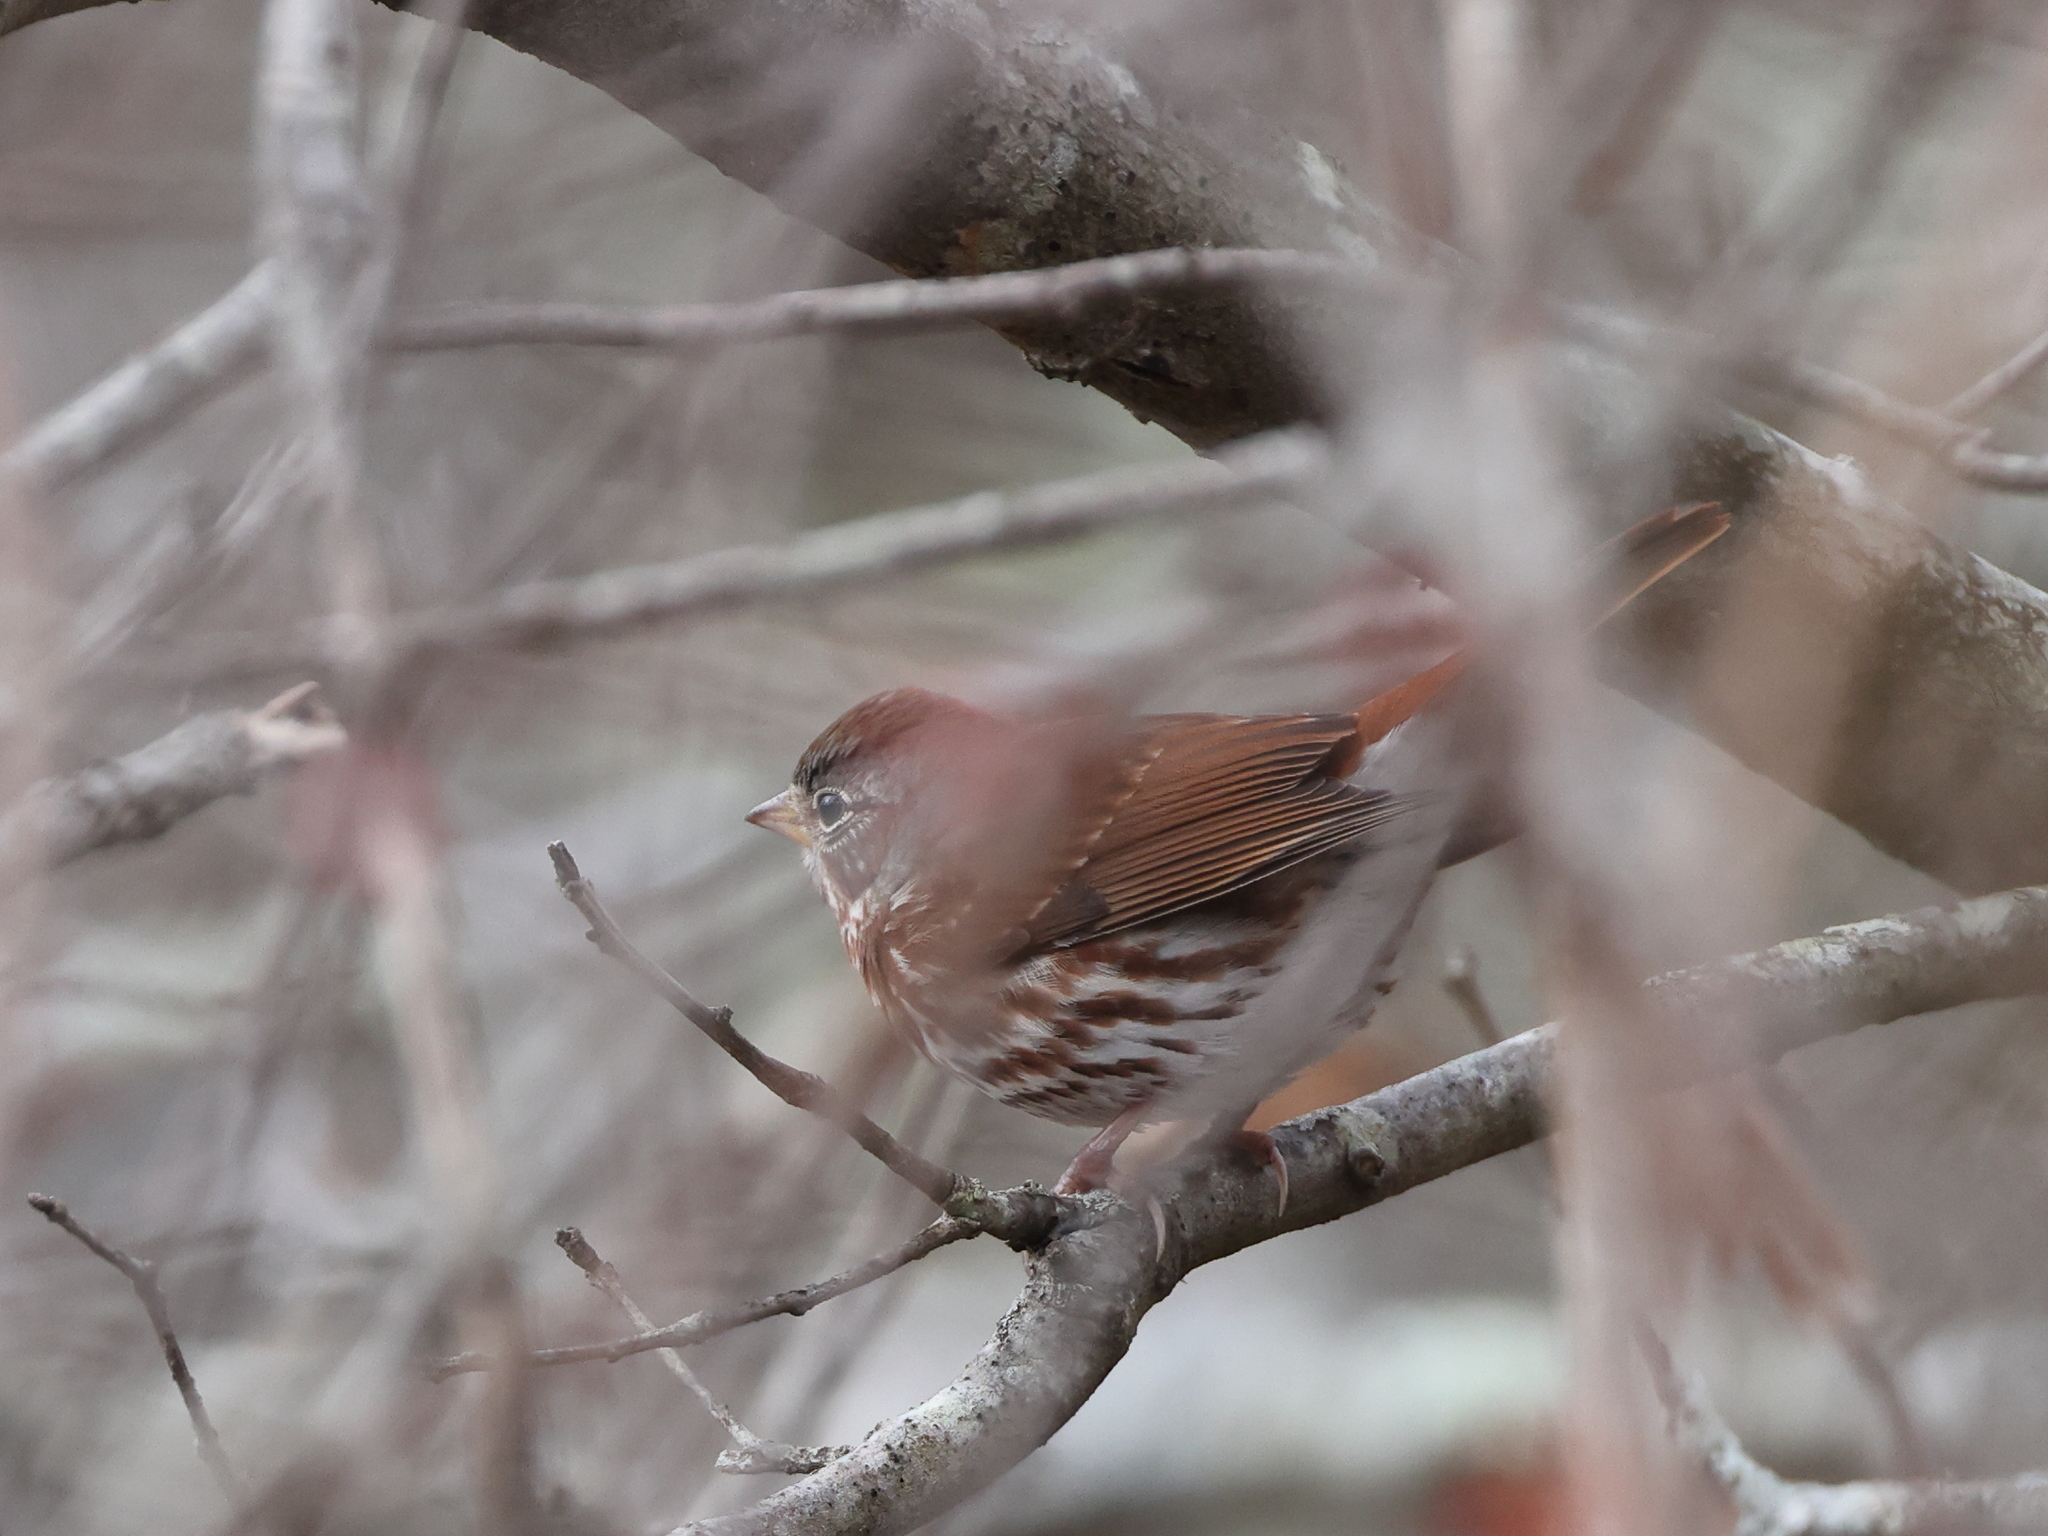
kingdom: Animalia
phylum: Chordata
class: Aves
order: Passeriformes
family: Passerellidae
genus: Passerella
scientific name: Passerella iliaca
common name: Fox sparrow
